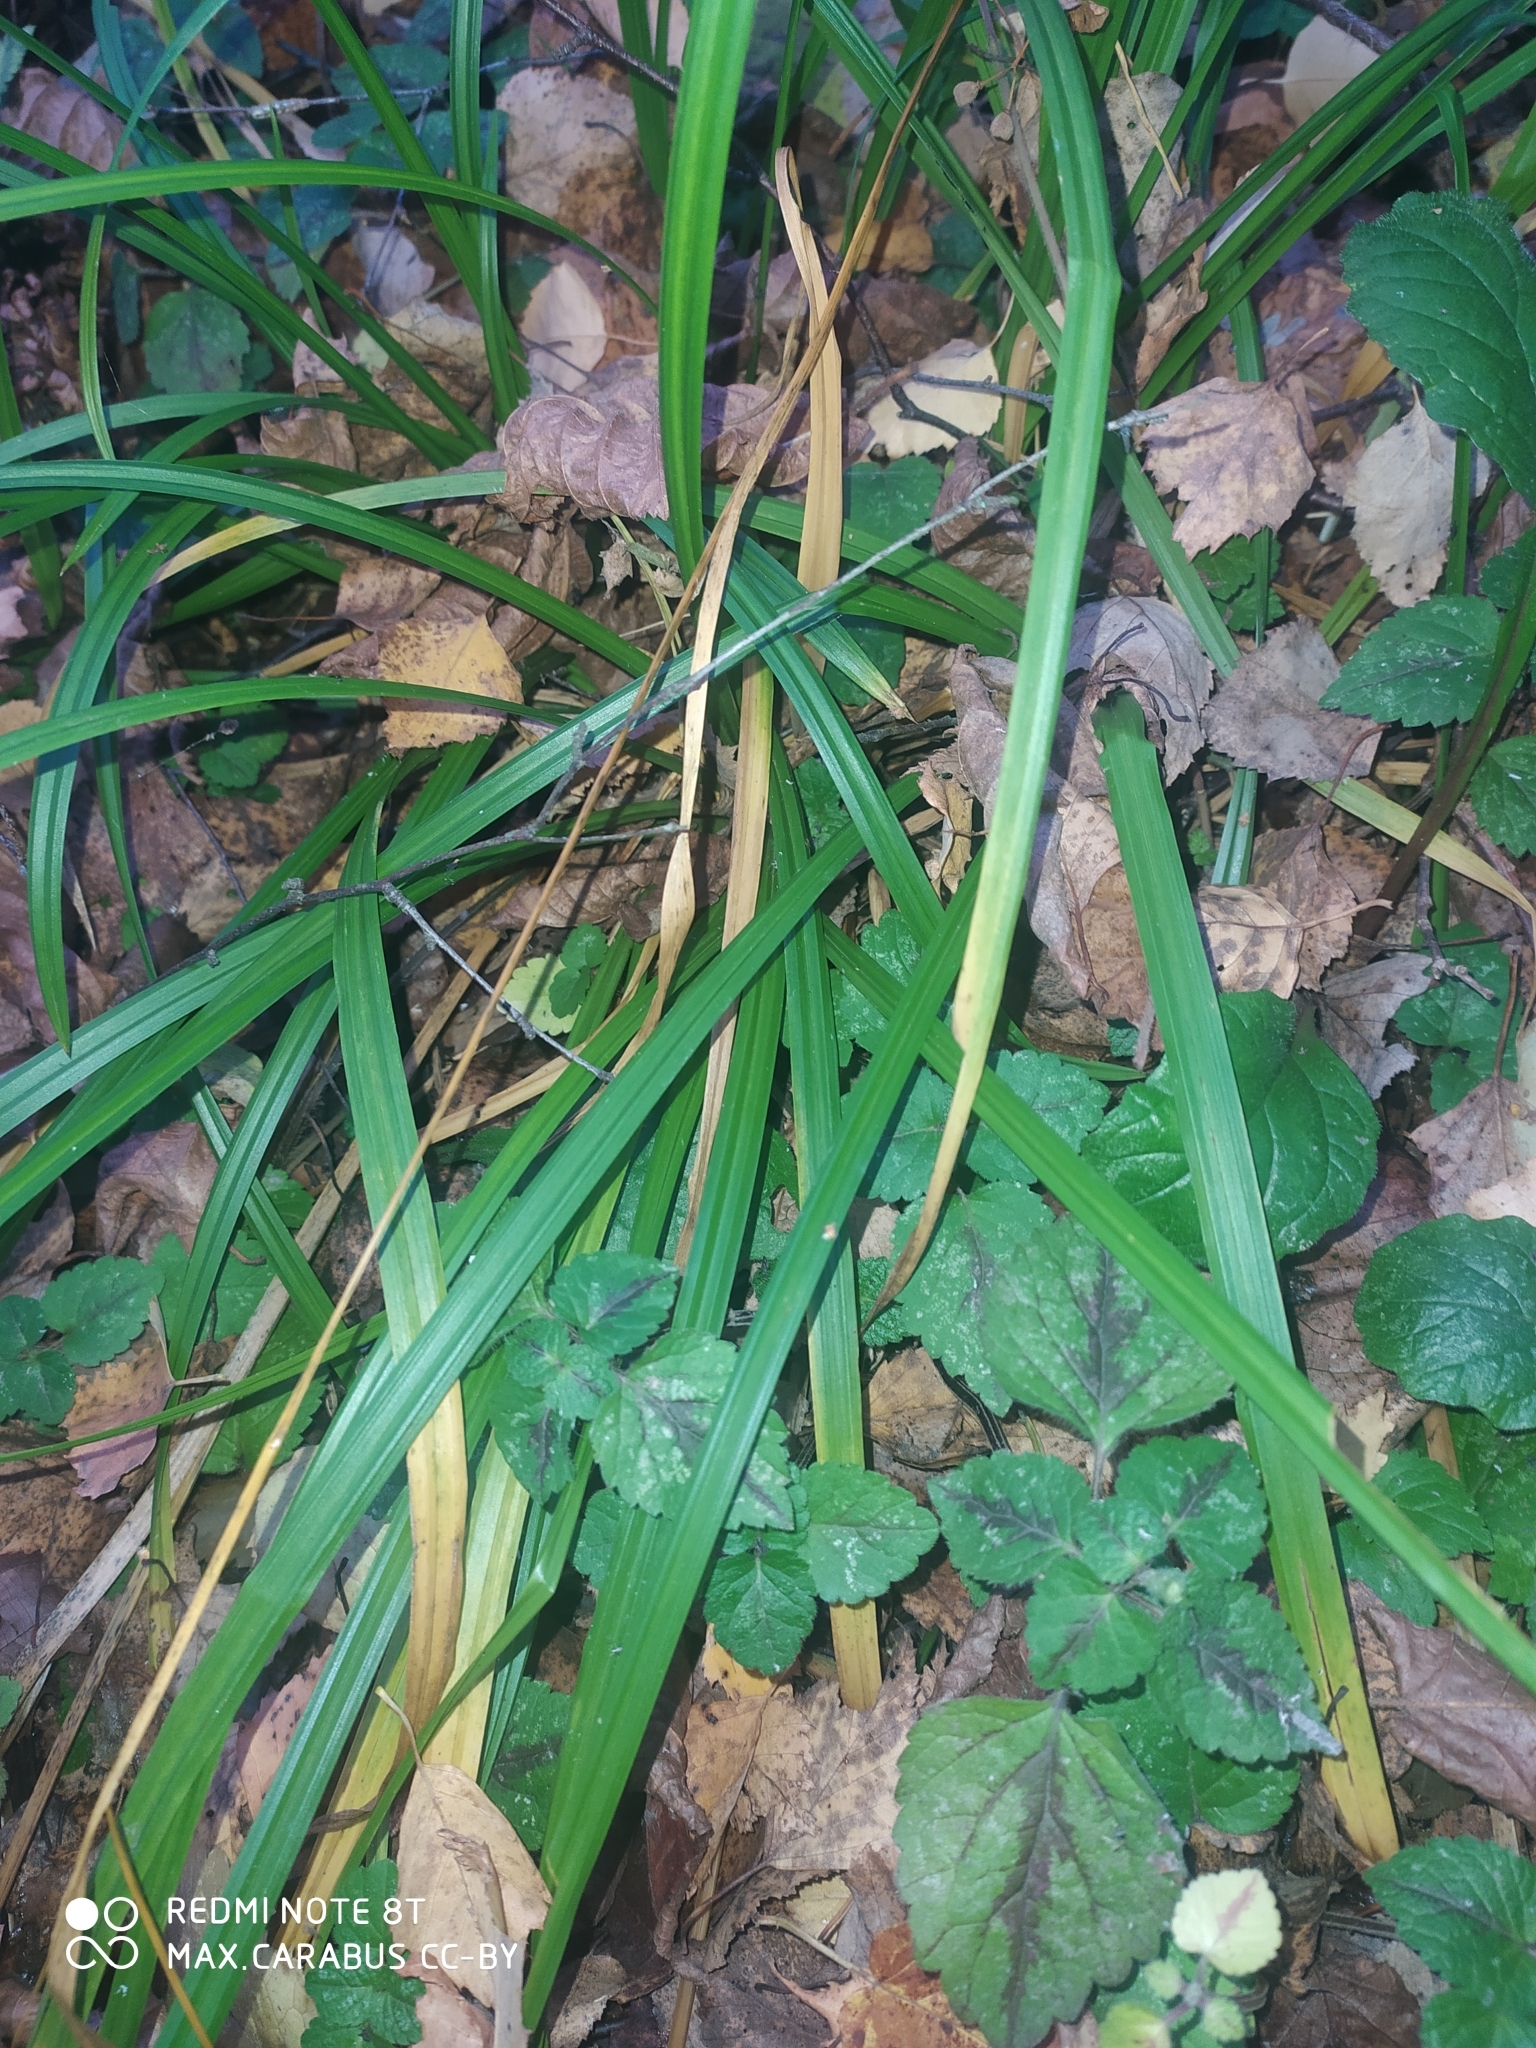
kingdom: Plantae
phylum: Tracheophyta
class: Liliopsida
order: Poales
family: Cyperaceae
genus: Carex
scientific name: Carex pilosa
